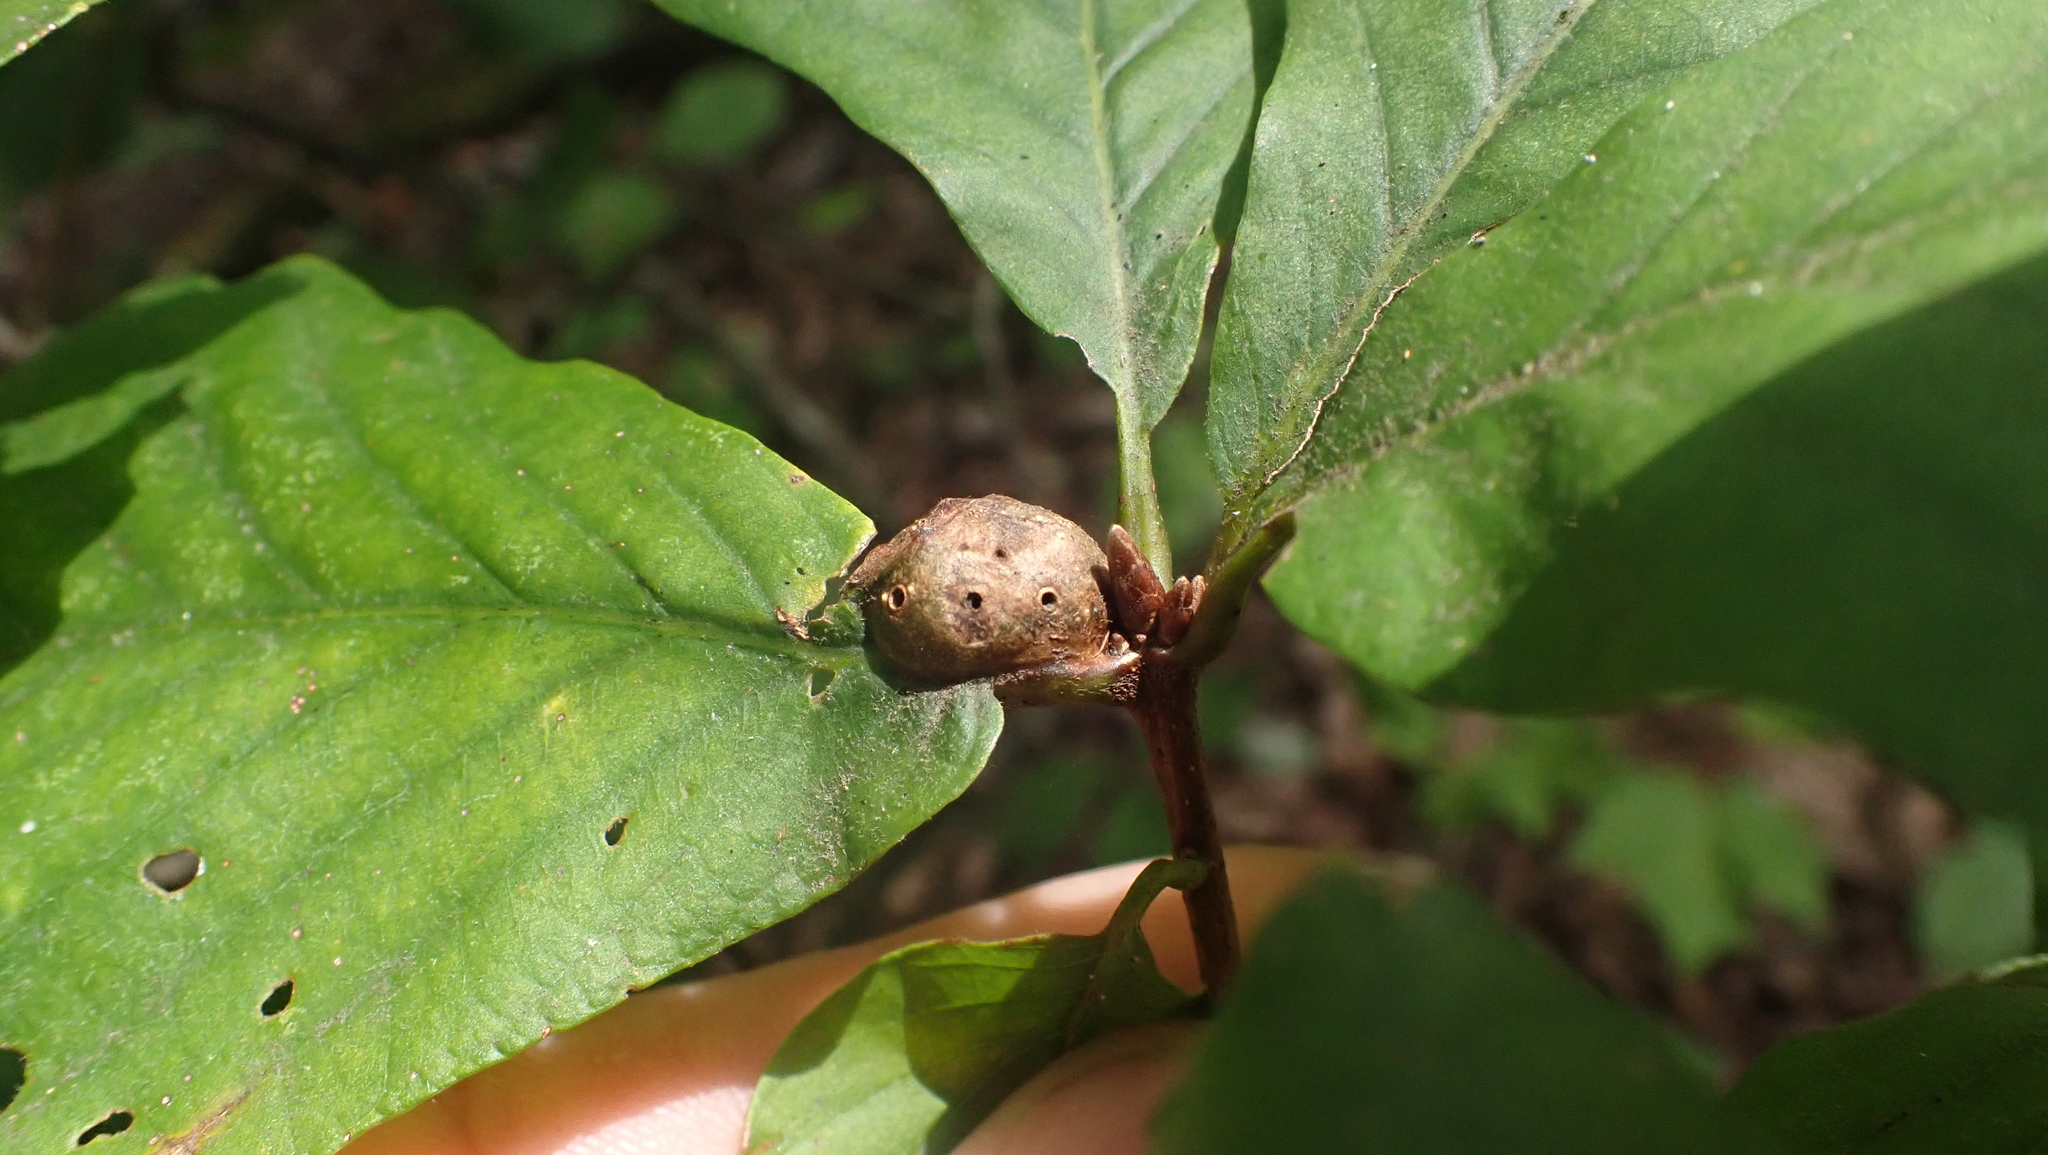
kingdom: Animalia
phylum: Arthropoda
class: Insecta
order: Hymenoptera
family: Cynipidae
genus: Andricus
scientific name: Andricus
